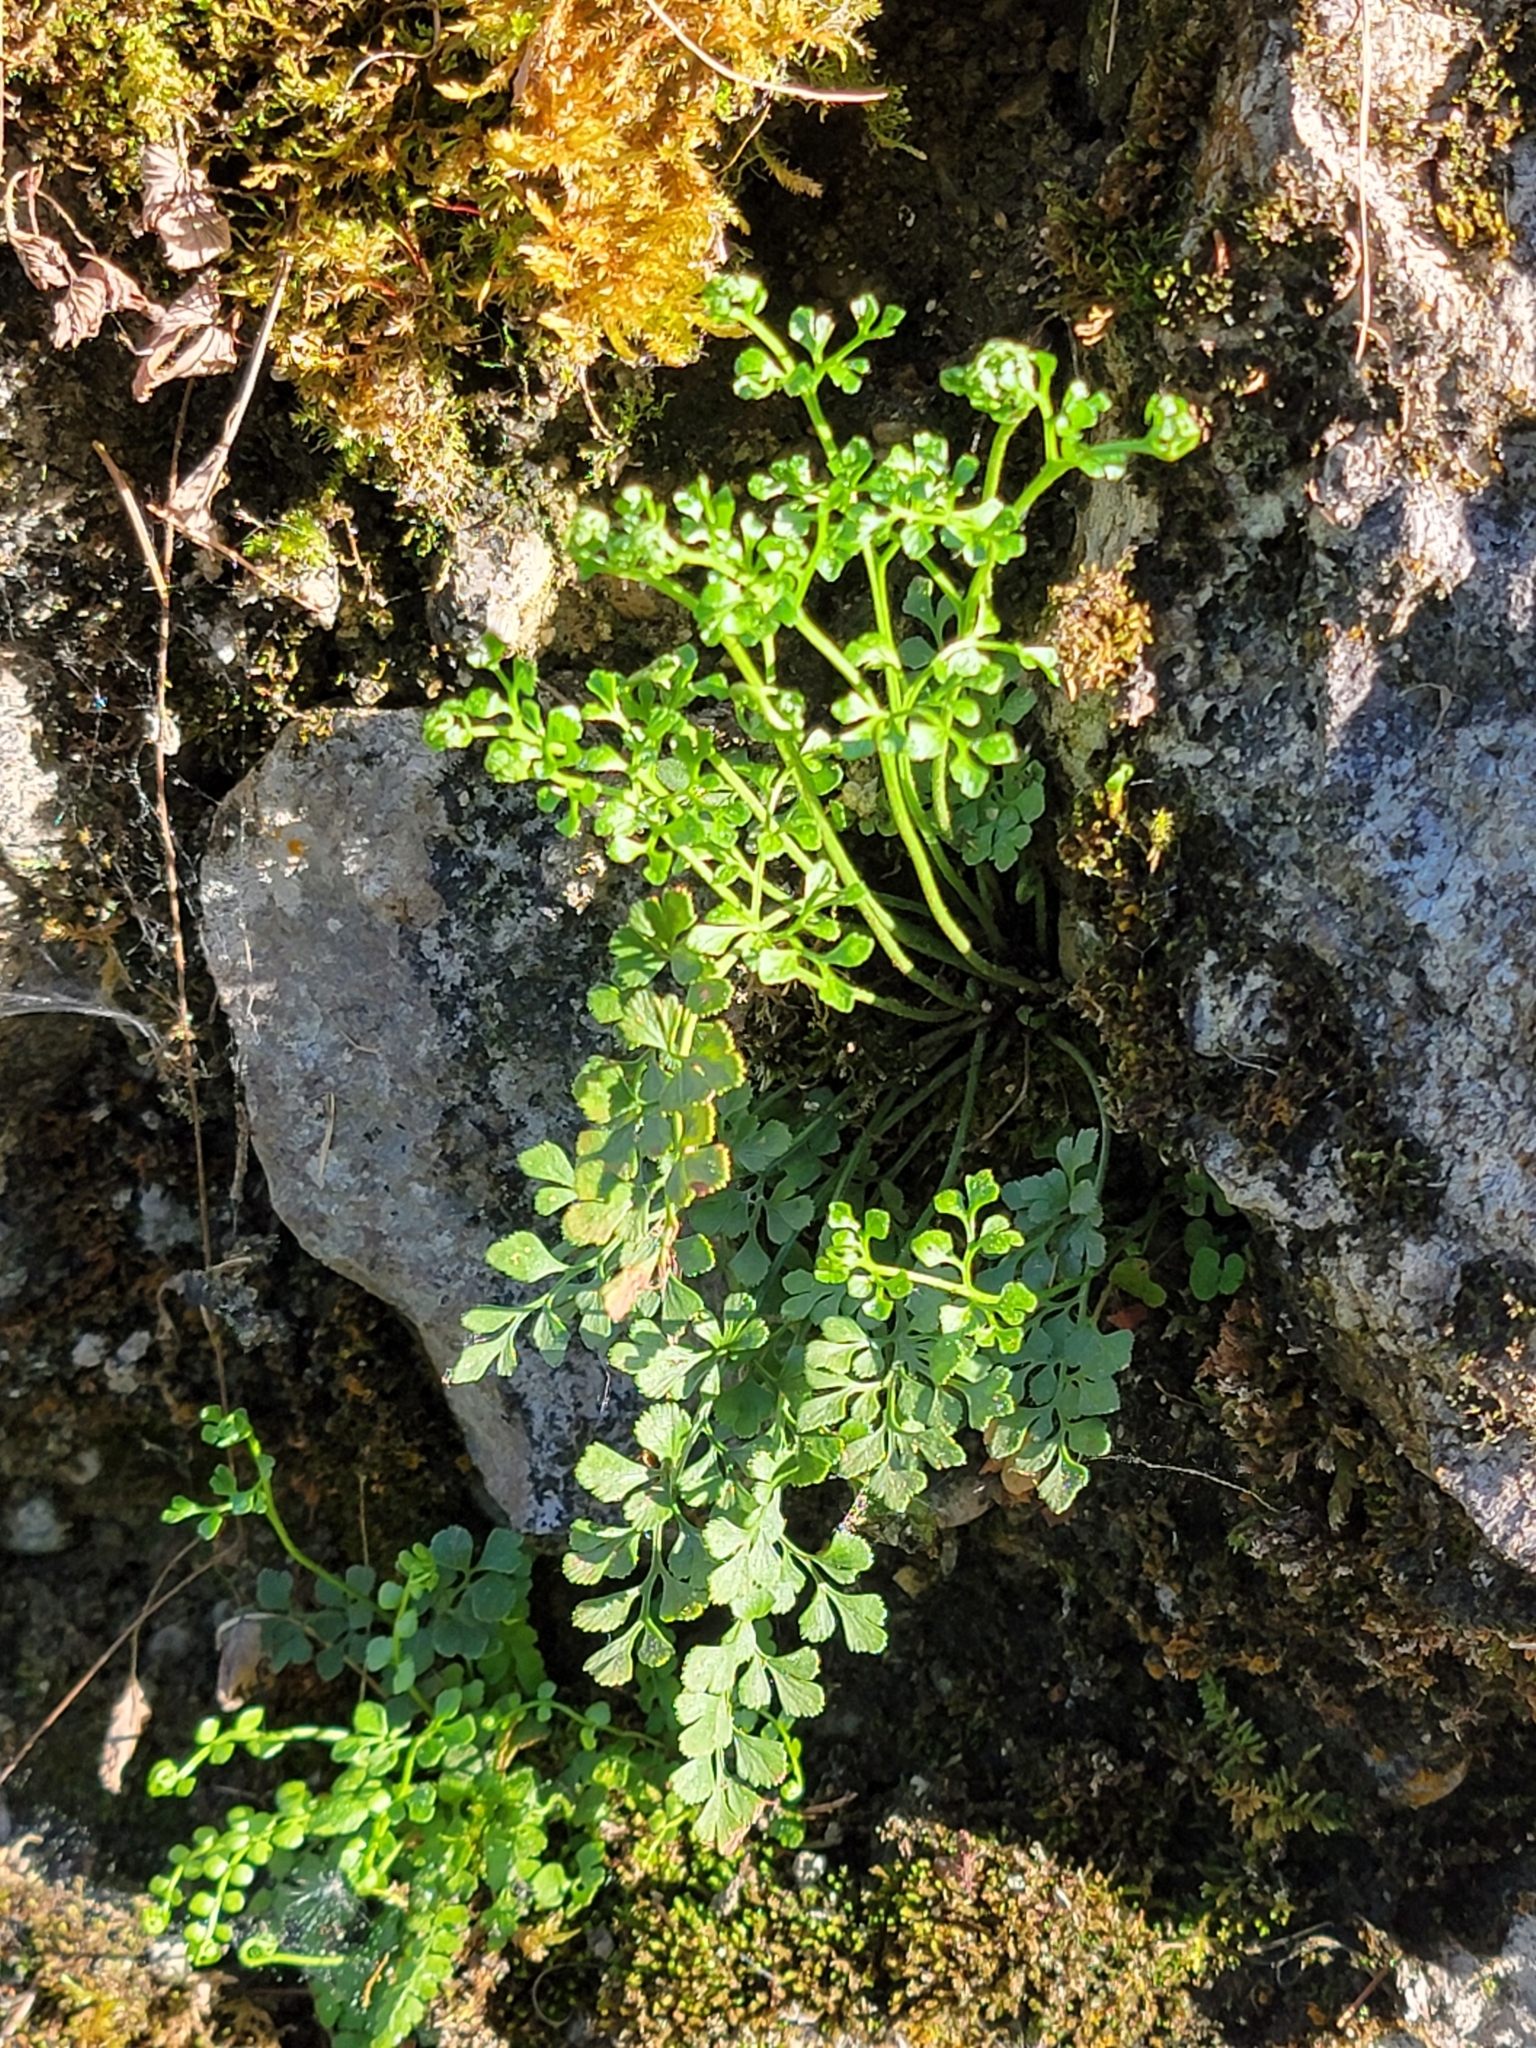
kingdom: Plantae
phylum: Tracheophyta
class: Polypodiopsida
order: Polypodiales
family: Aspleniaceae
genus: Asplenium
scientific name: Asplenium ruta-muraria
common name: Wall-rue
